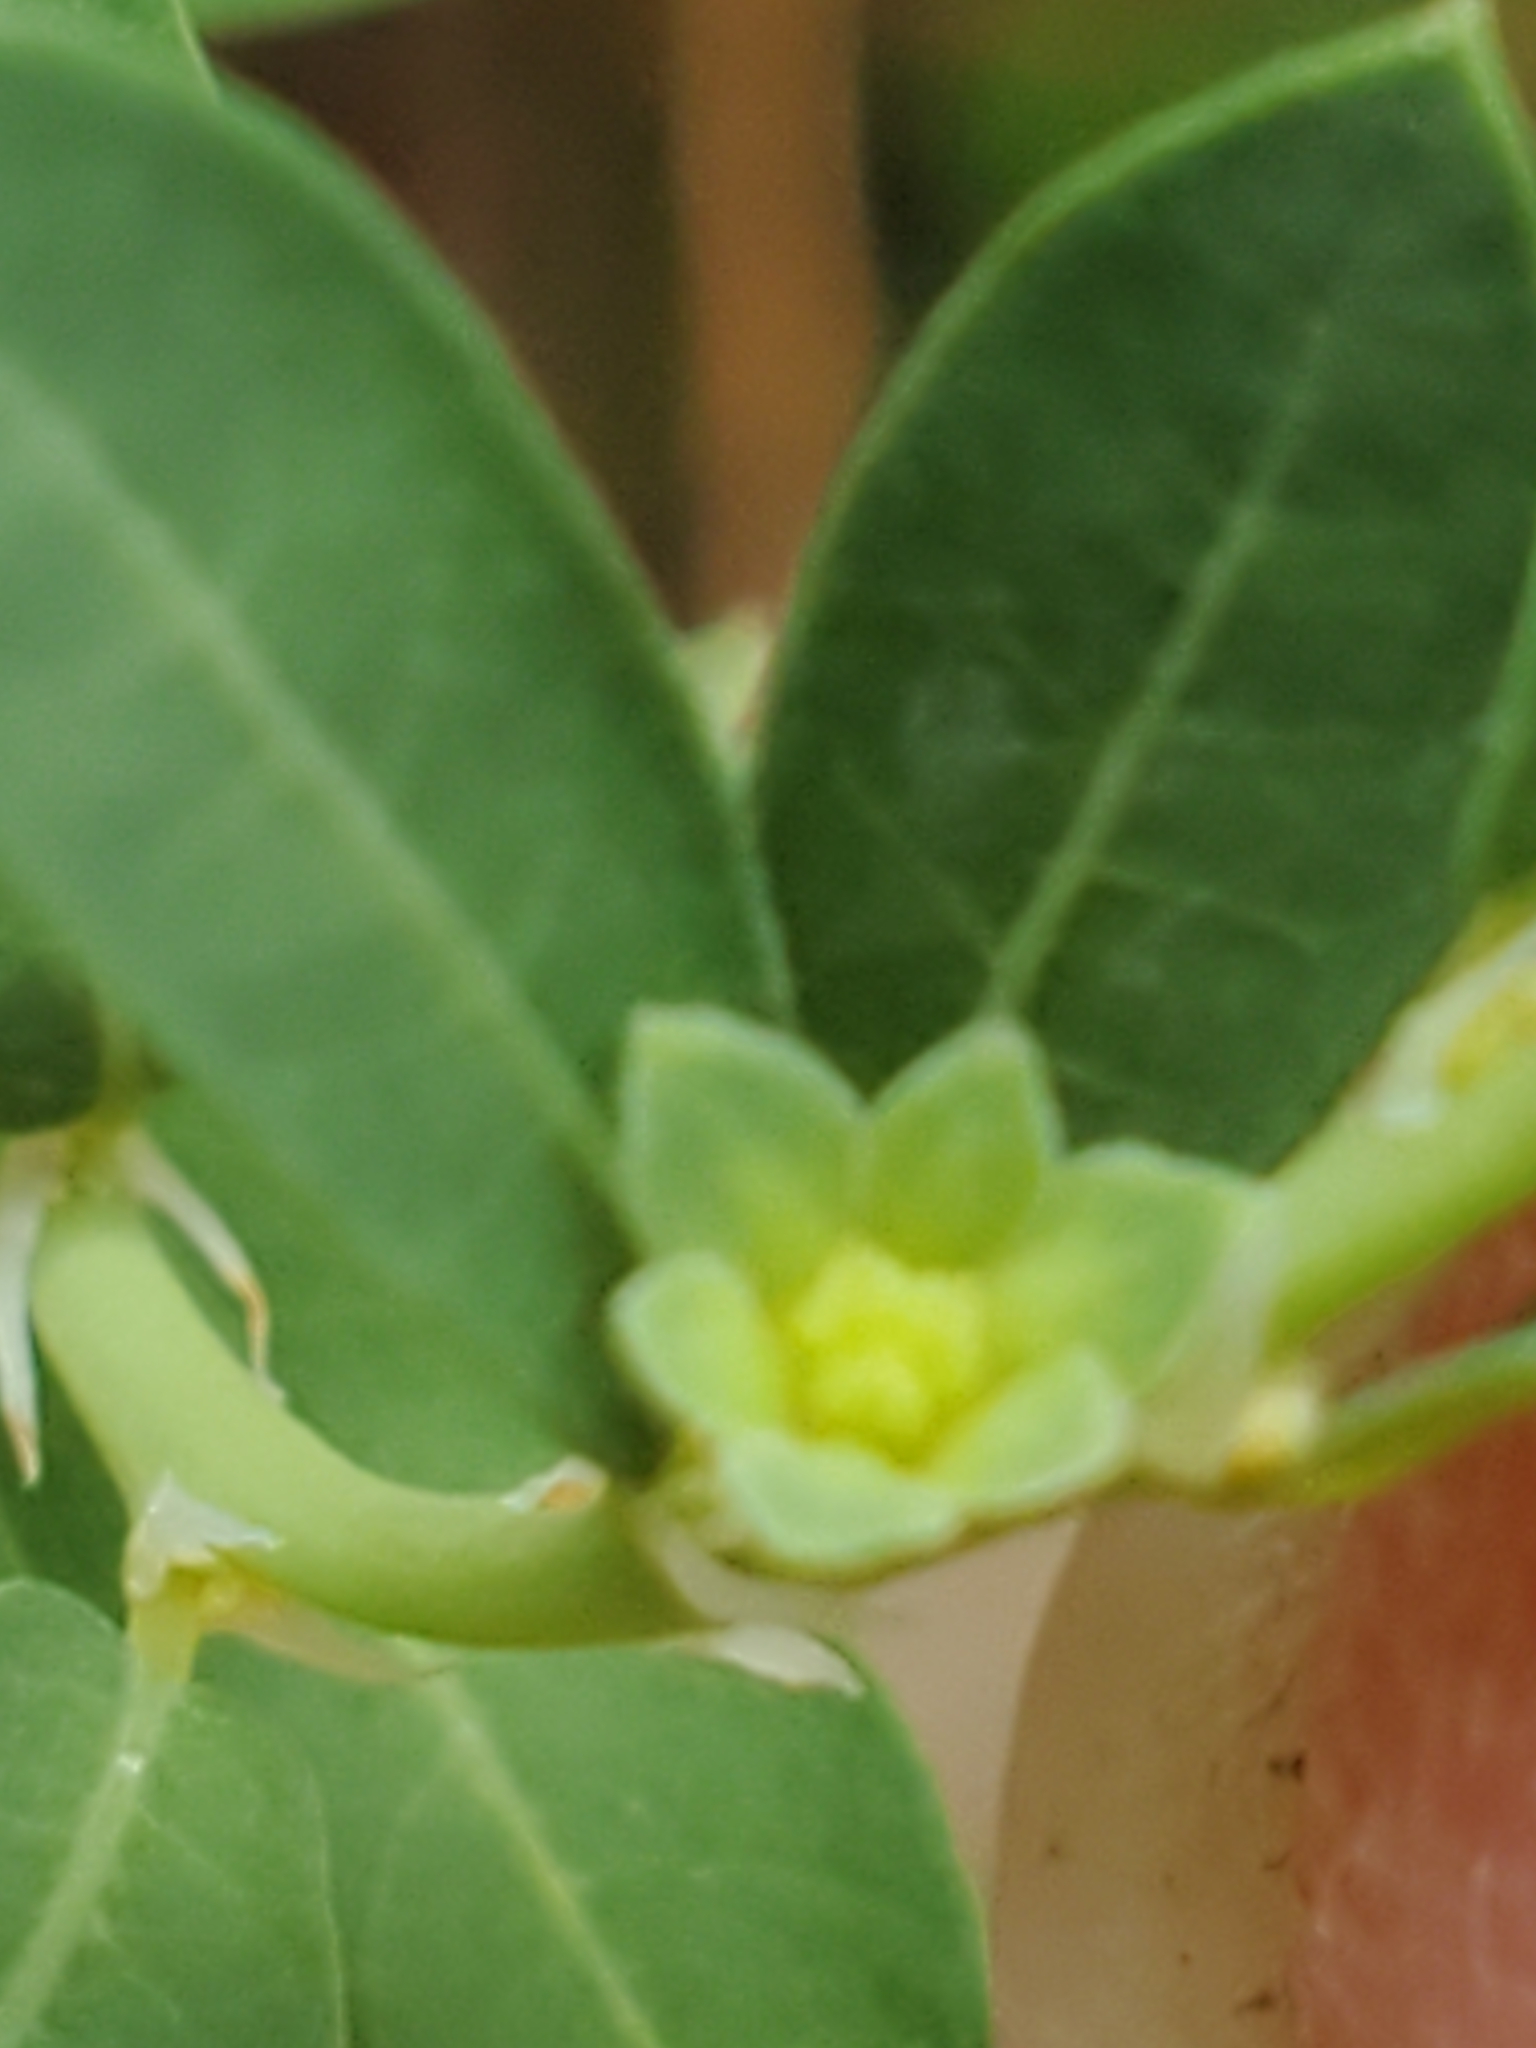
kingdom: Plantae
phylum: Tracheophyta
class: Magnoliopsida
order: Malpighiales
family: Phyllanthaceae
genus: Phyllanthus
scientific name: Phyllanthus polygonoides
